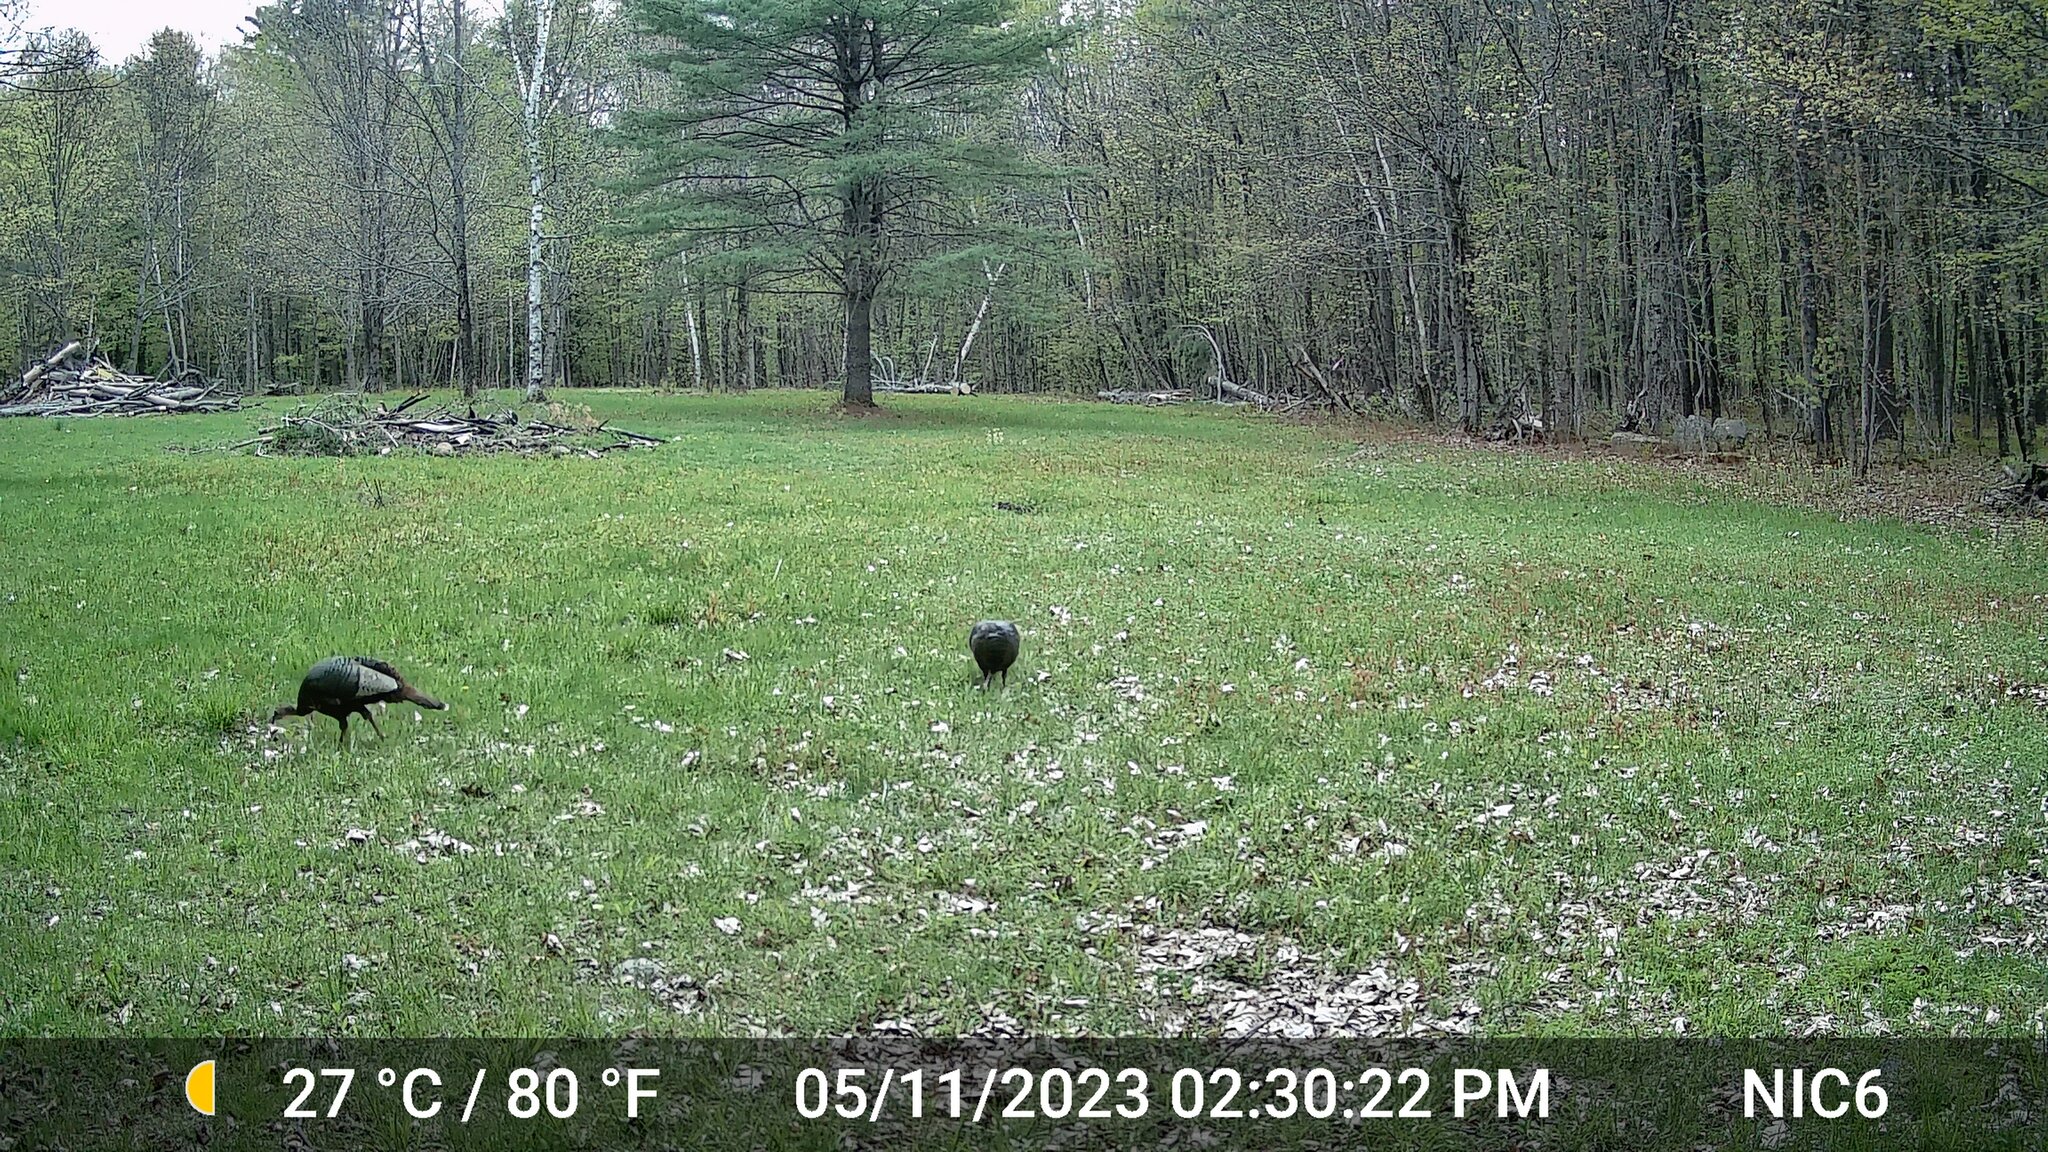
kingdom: Animalia
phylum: Chordata
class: Aves
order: Galliformes
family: Phasianidae
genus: Meleagris
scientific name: Meleagris gallopavo
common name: Wild turkey
